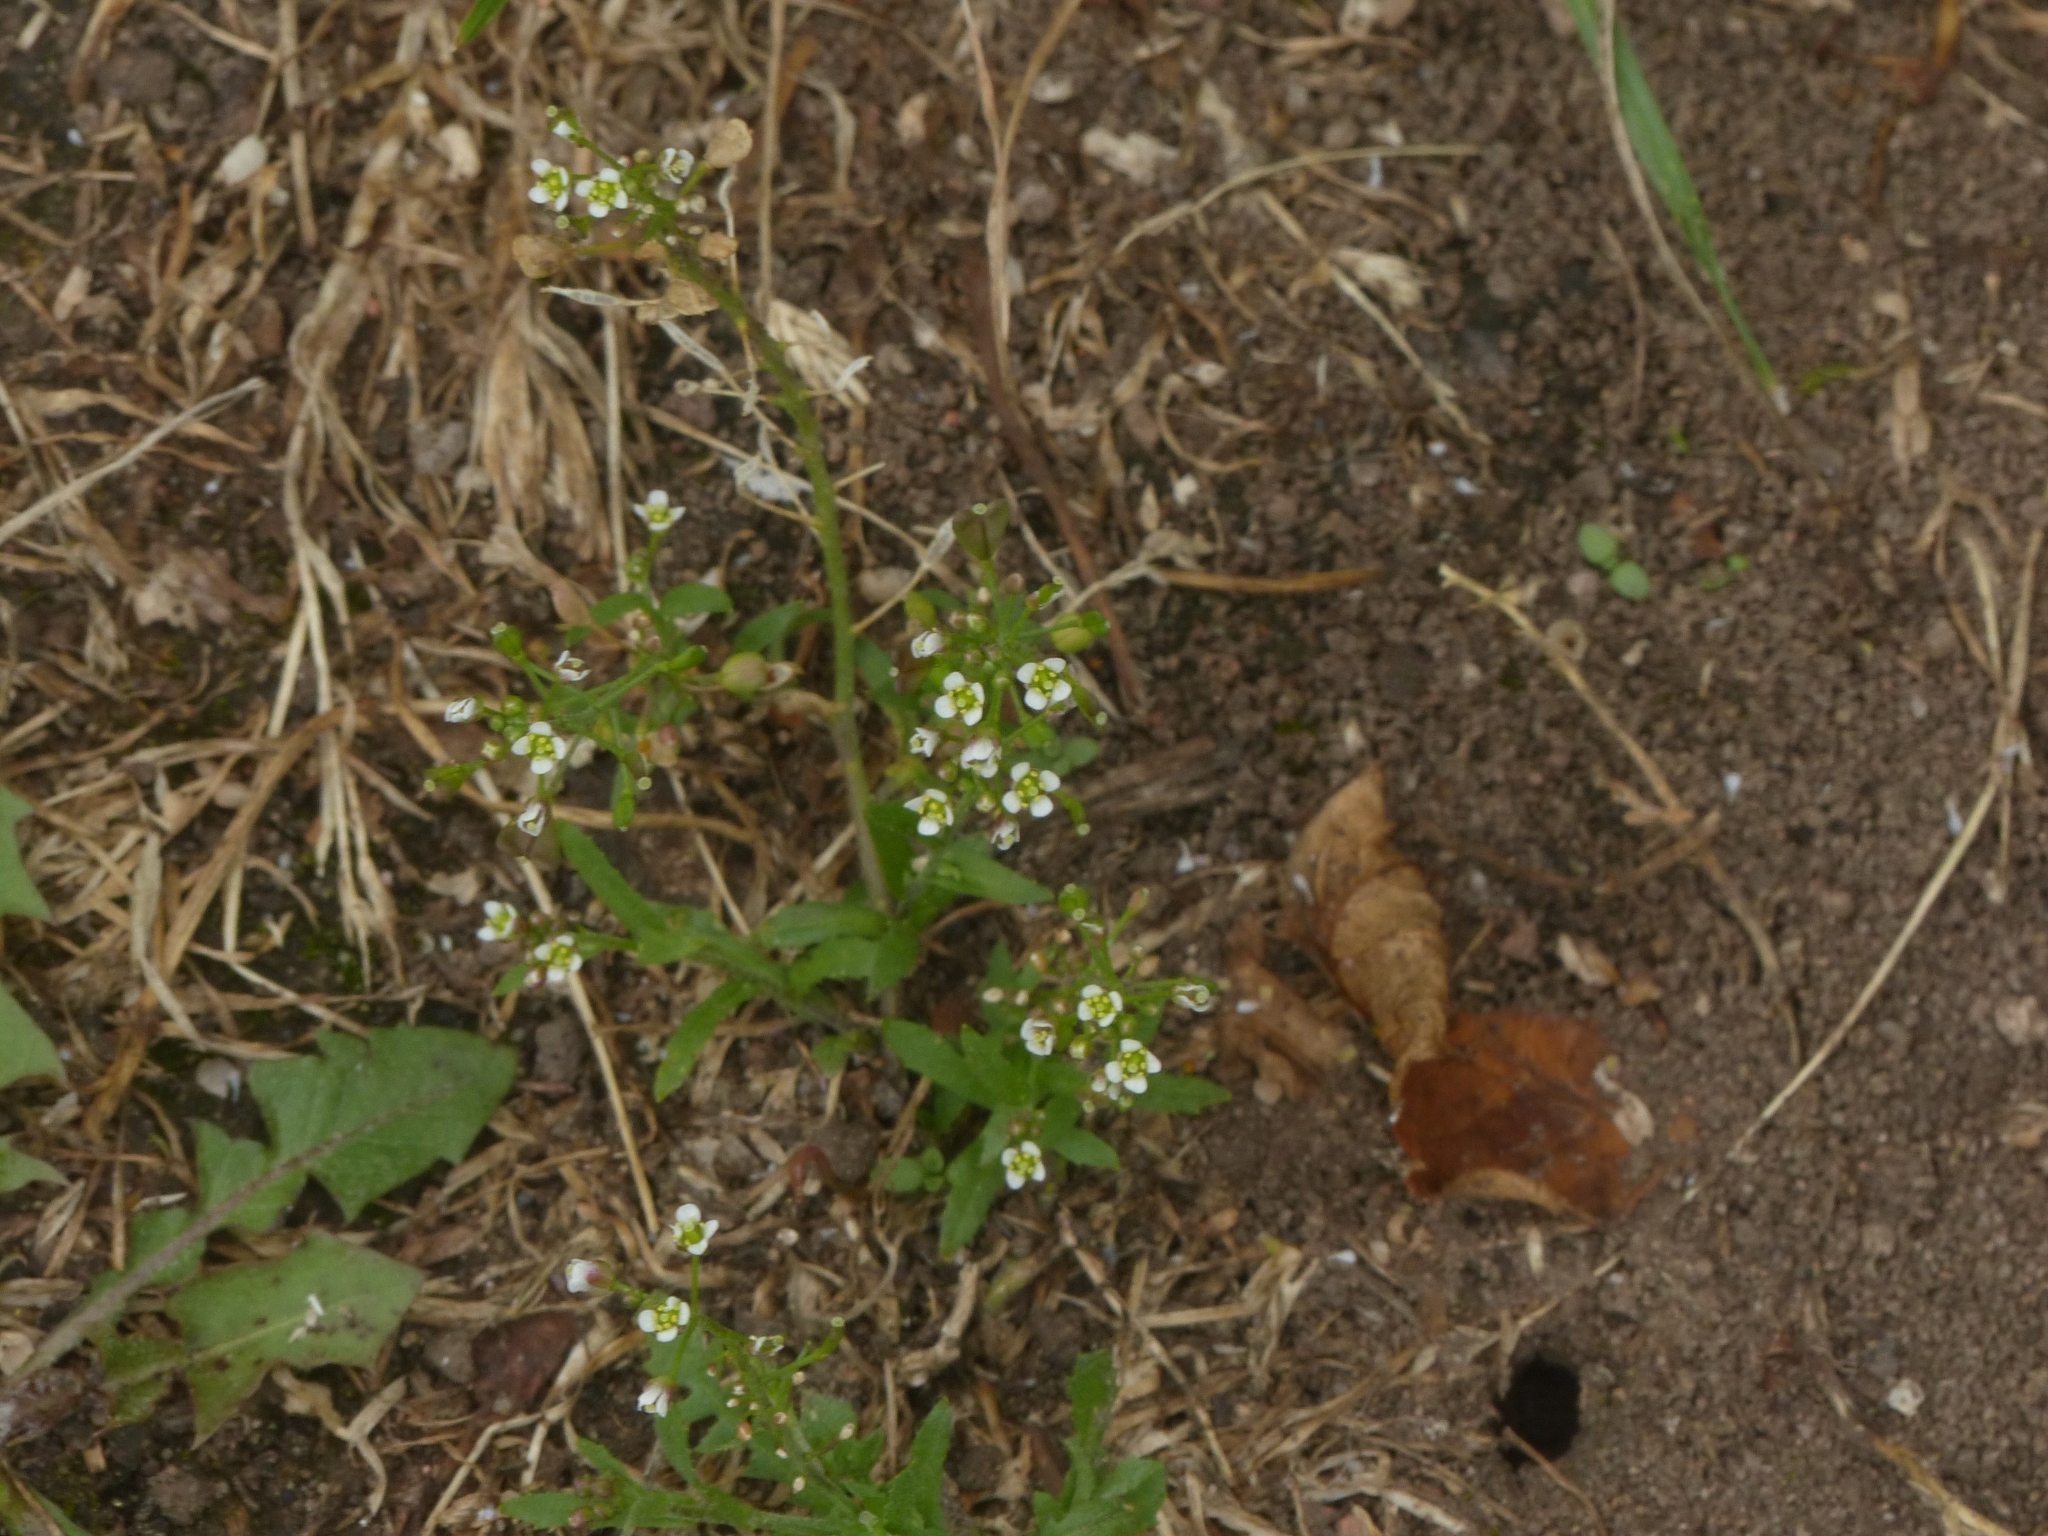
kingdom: Plantae
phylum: Tracheophyta
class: Magnoliopsida
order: Brassicales
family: Brassicaceae
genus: Capsella
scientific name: Capsella bursa-pastoris
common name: Shepherd's purse
